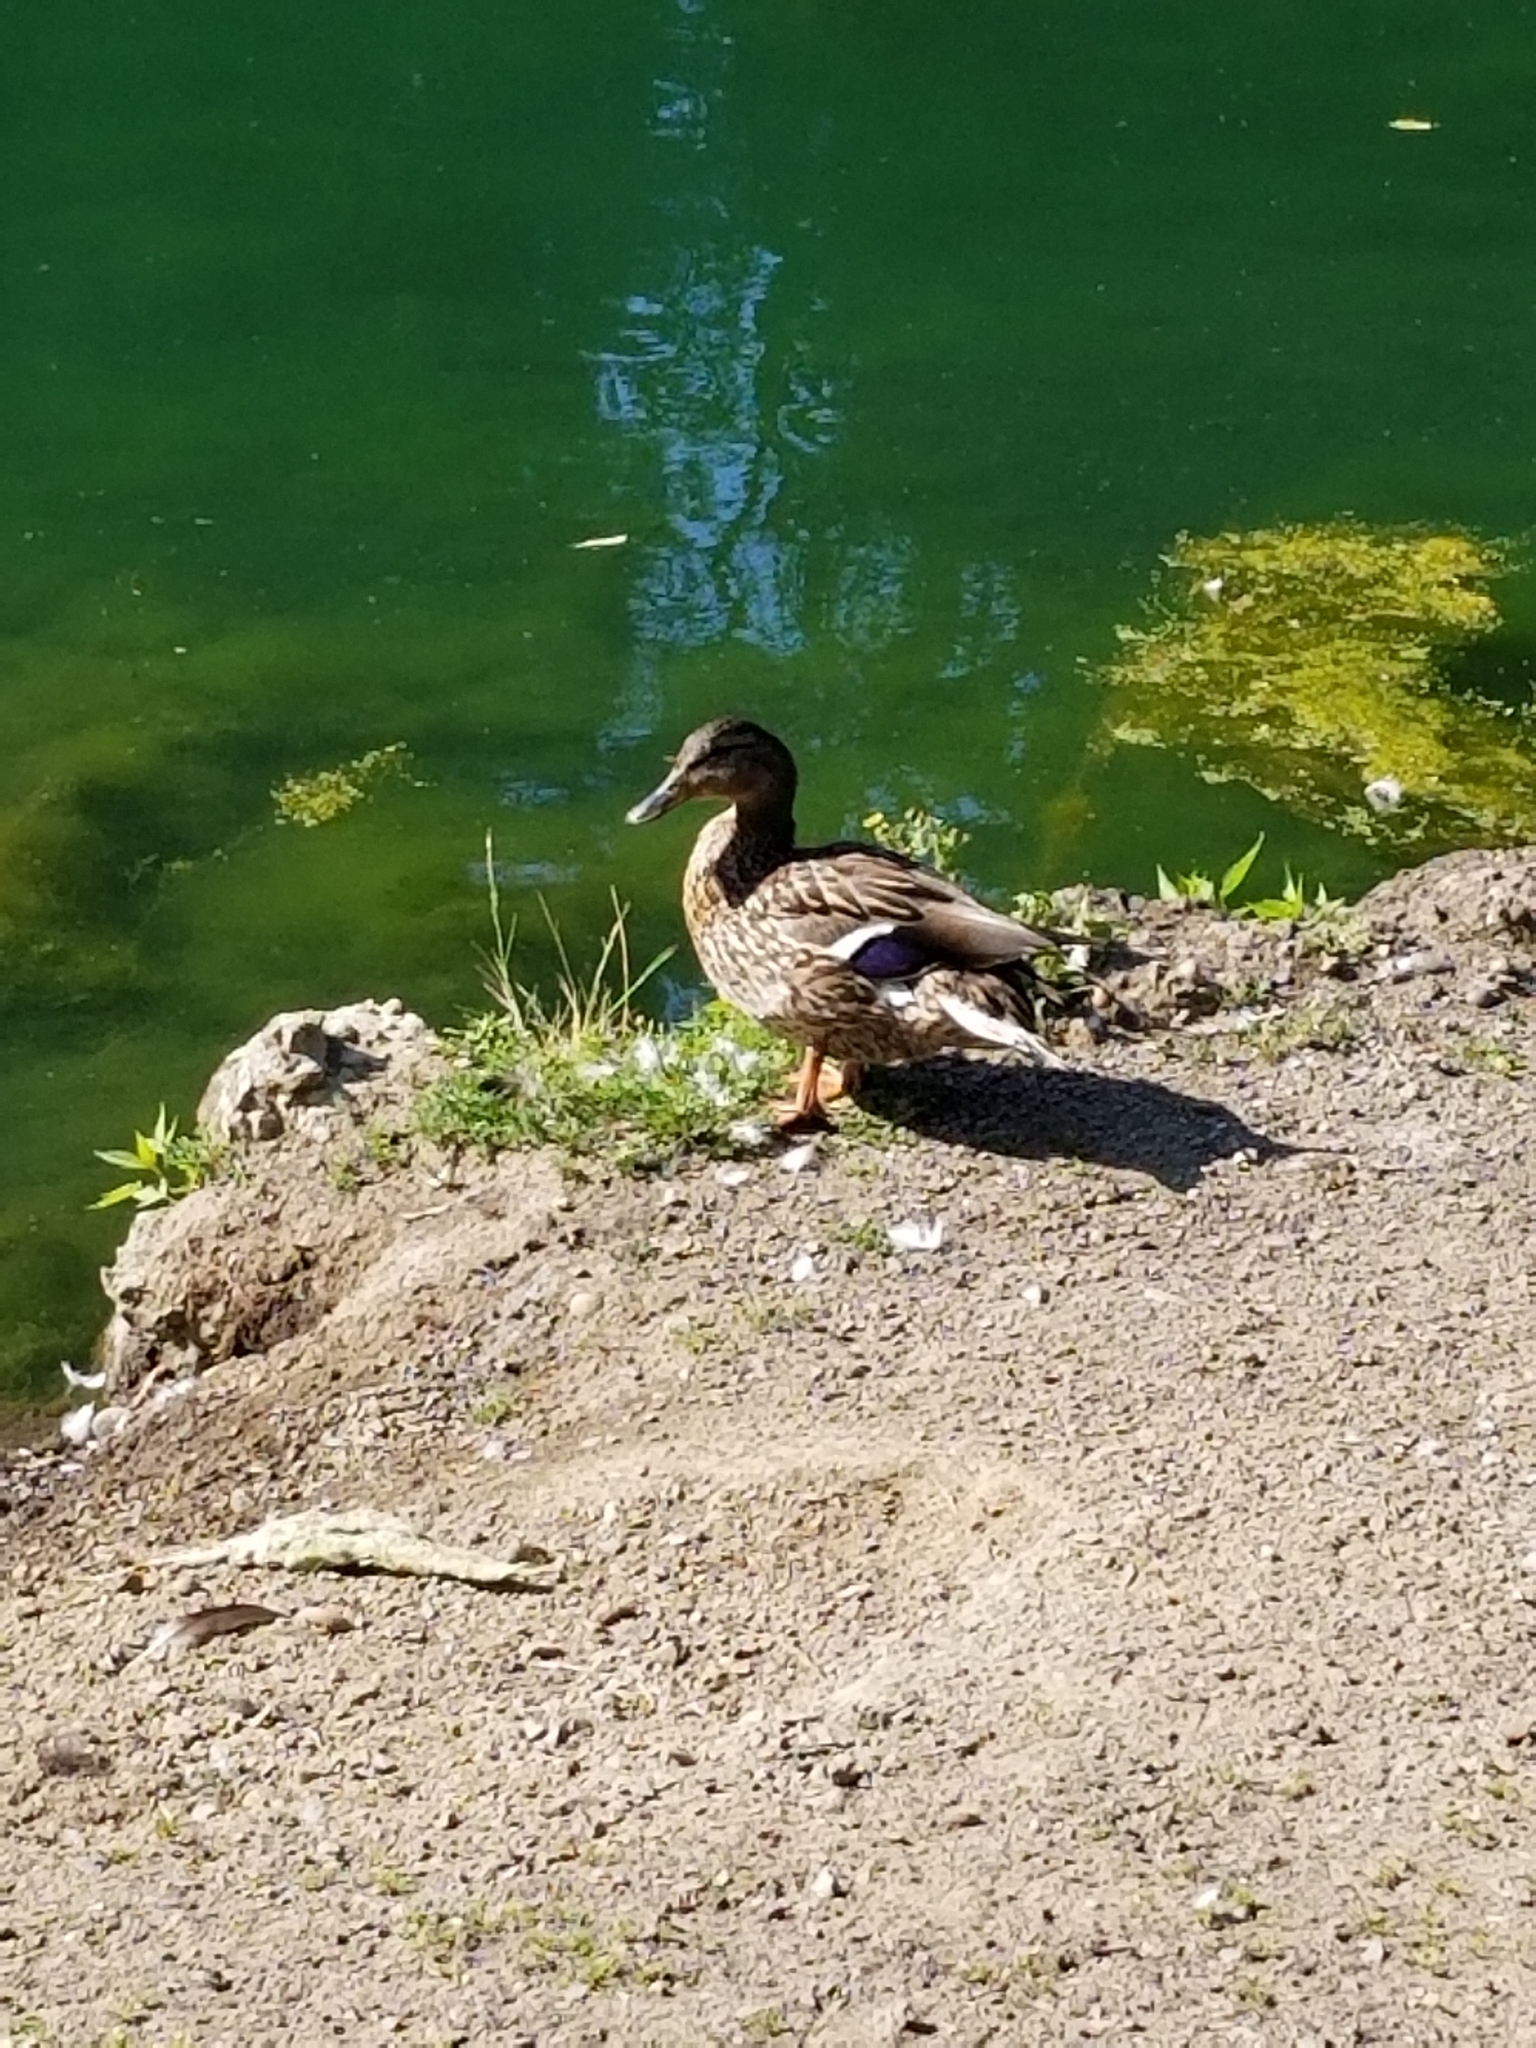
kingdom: Animalia
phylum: Chordata
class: Aves
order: Anseriformes
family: Anatidae
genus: Anas
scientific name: Anas platyrhynchos
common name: Mallard
